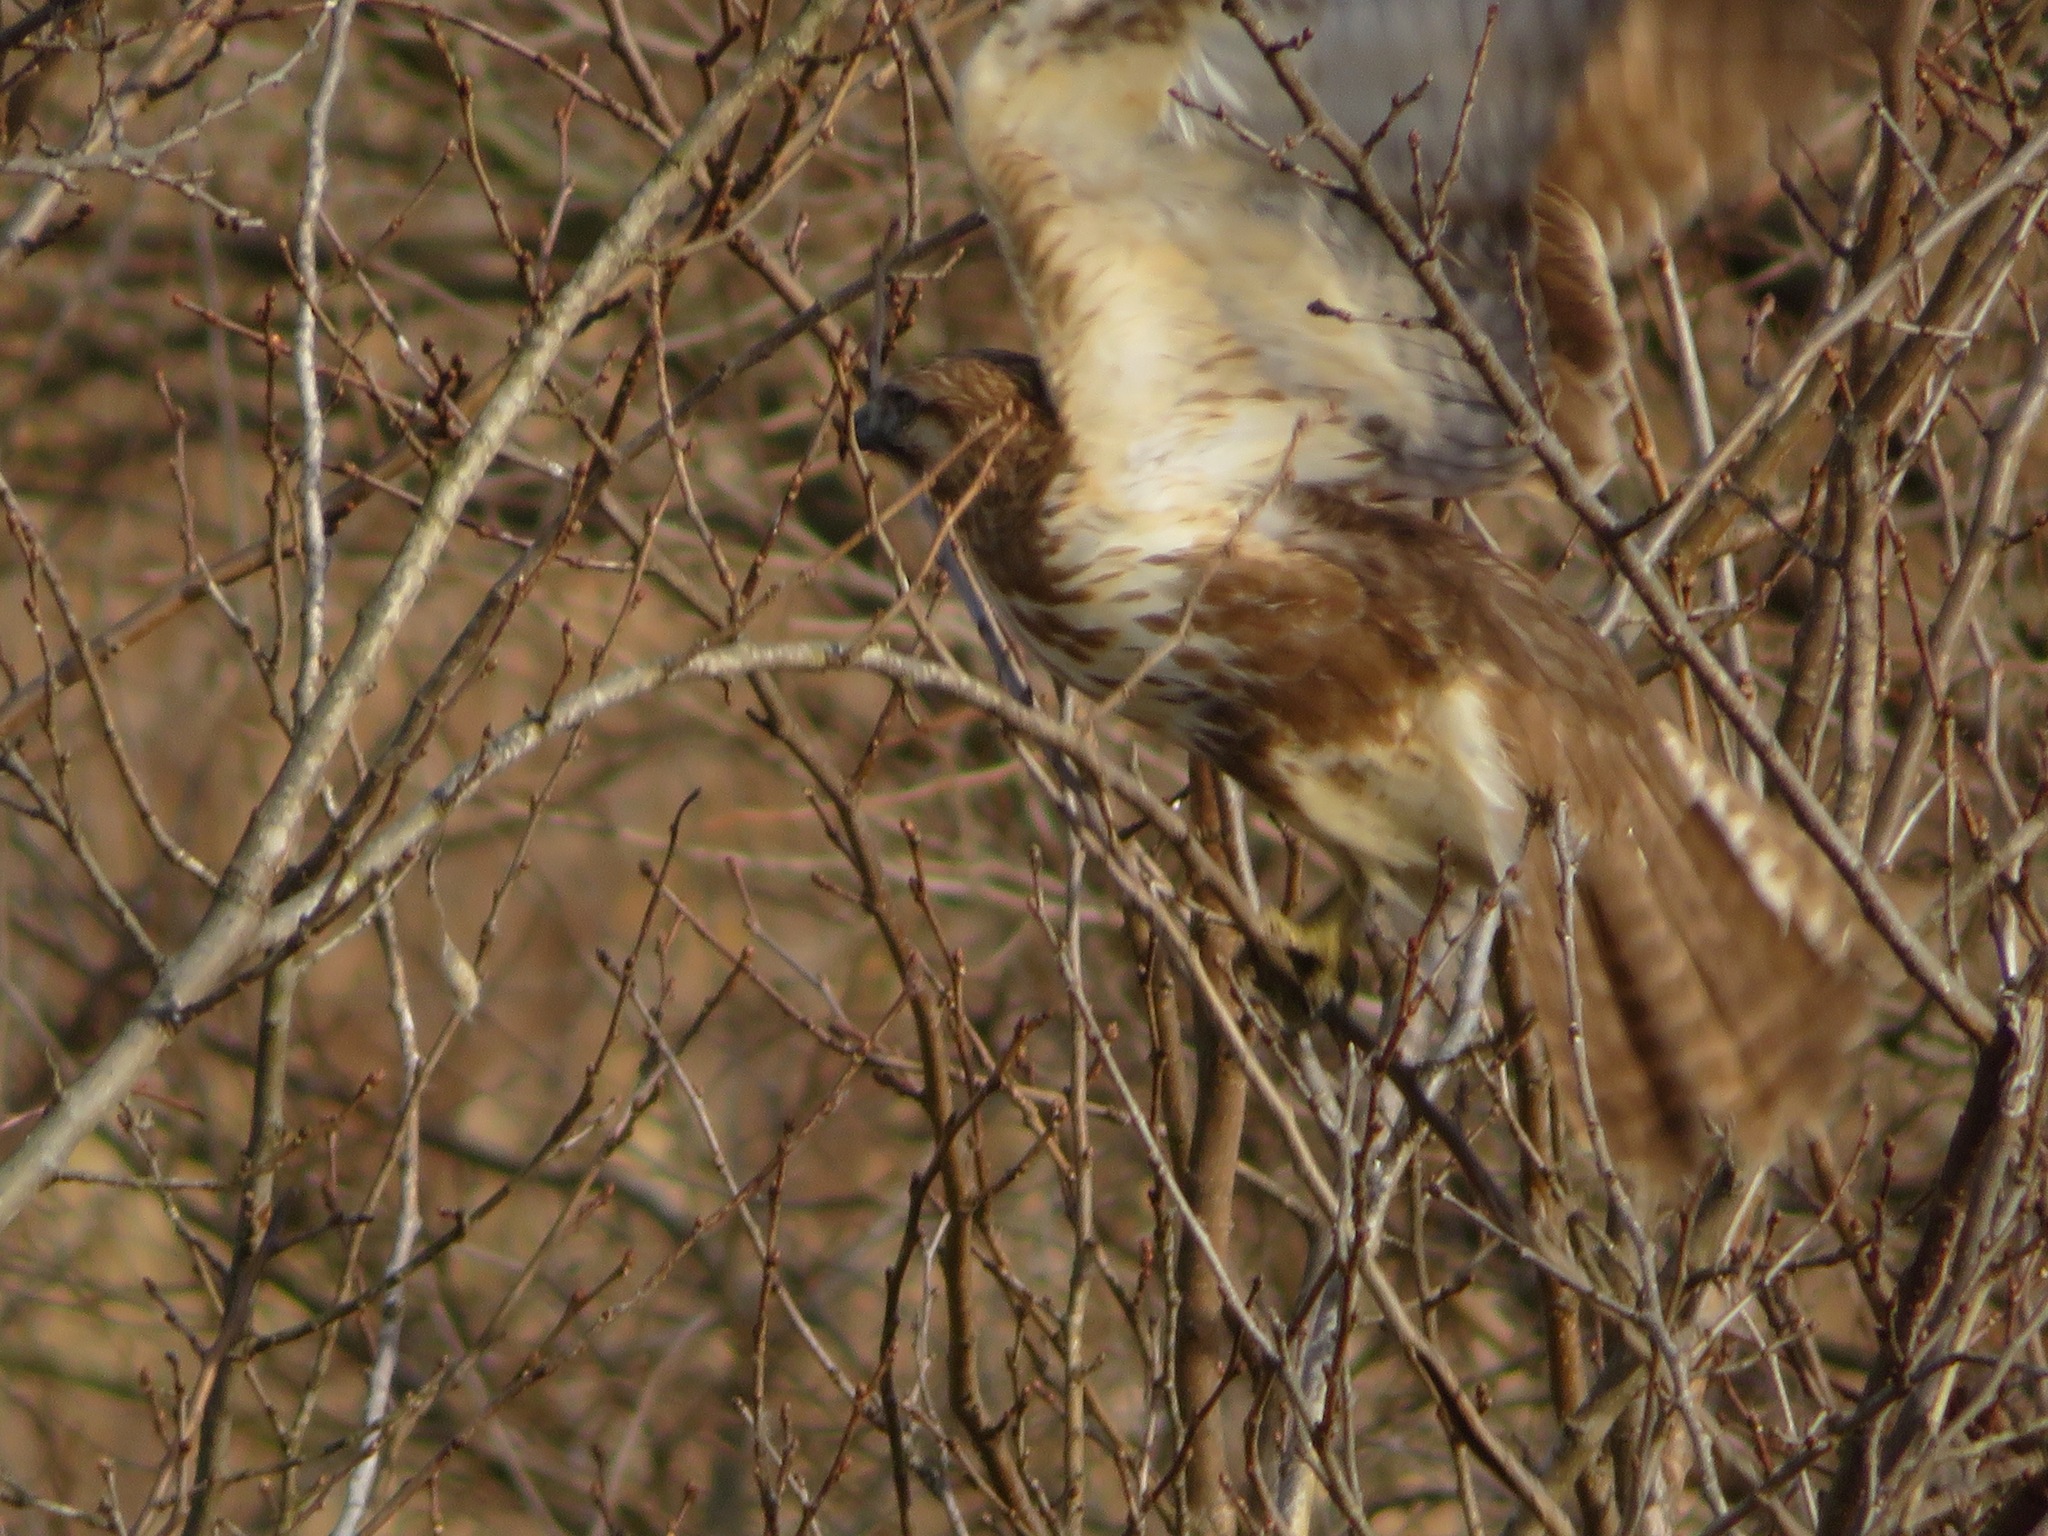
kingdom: Animalia
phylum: Chordata
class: Aves
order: Accipitriformes
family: Accipitridae
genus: Buteo
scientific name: Buteo japonicus
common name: Eastern buzzard
